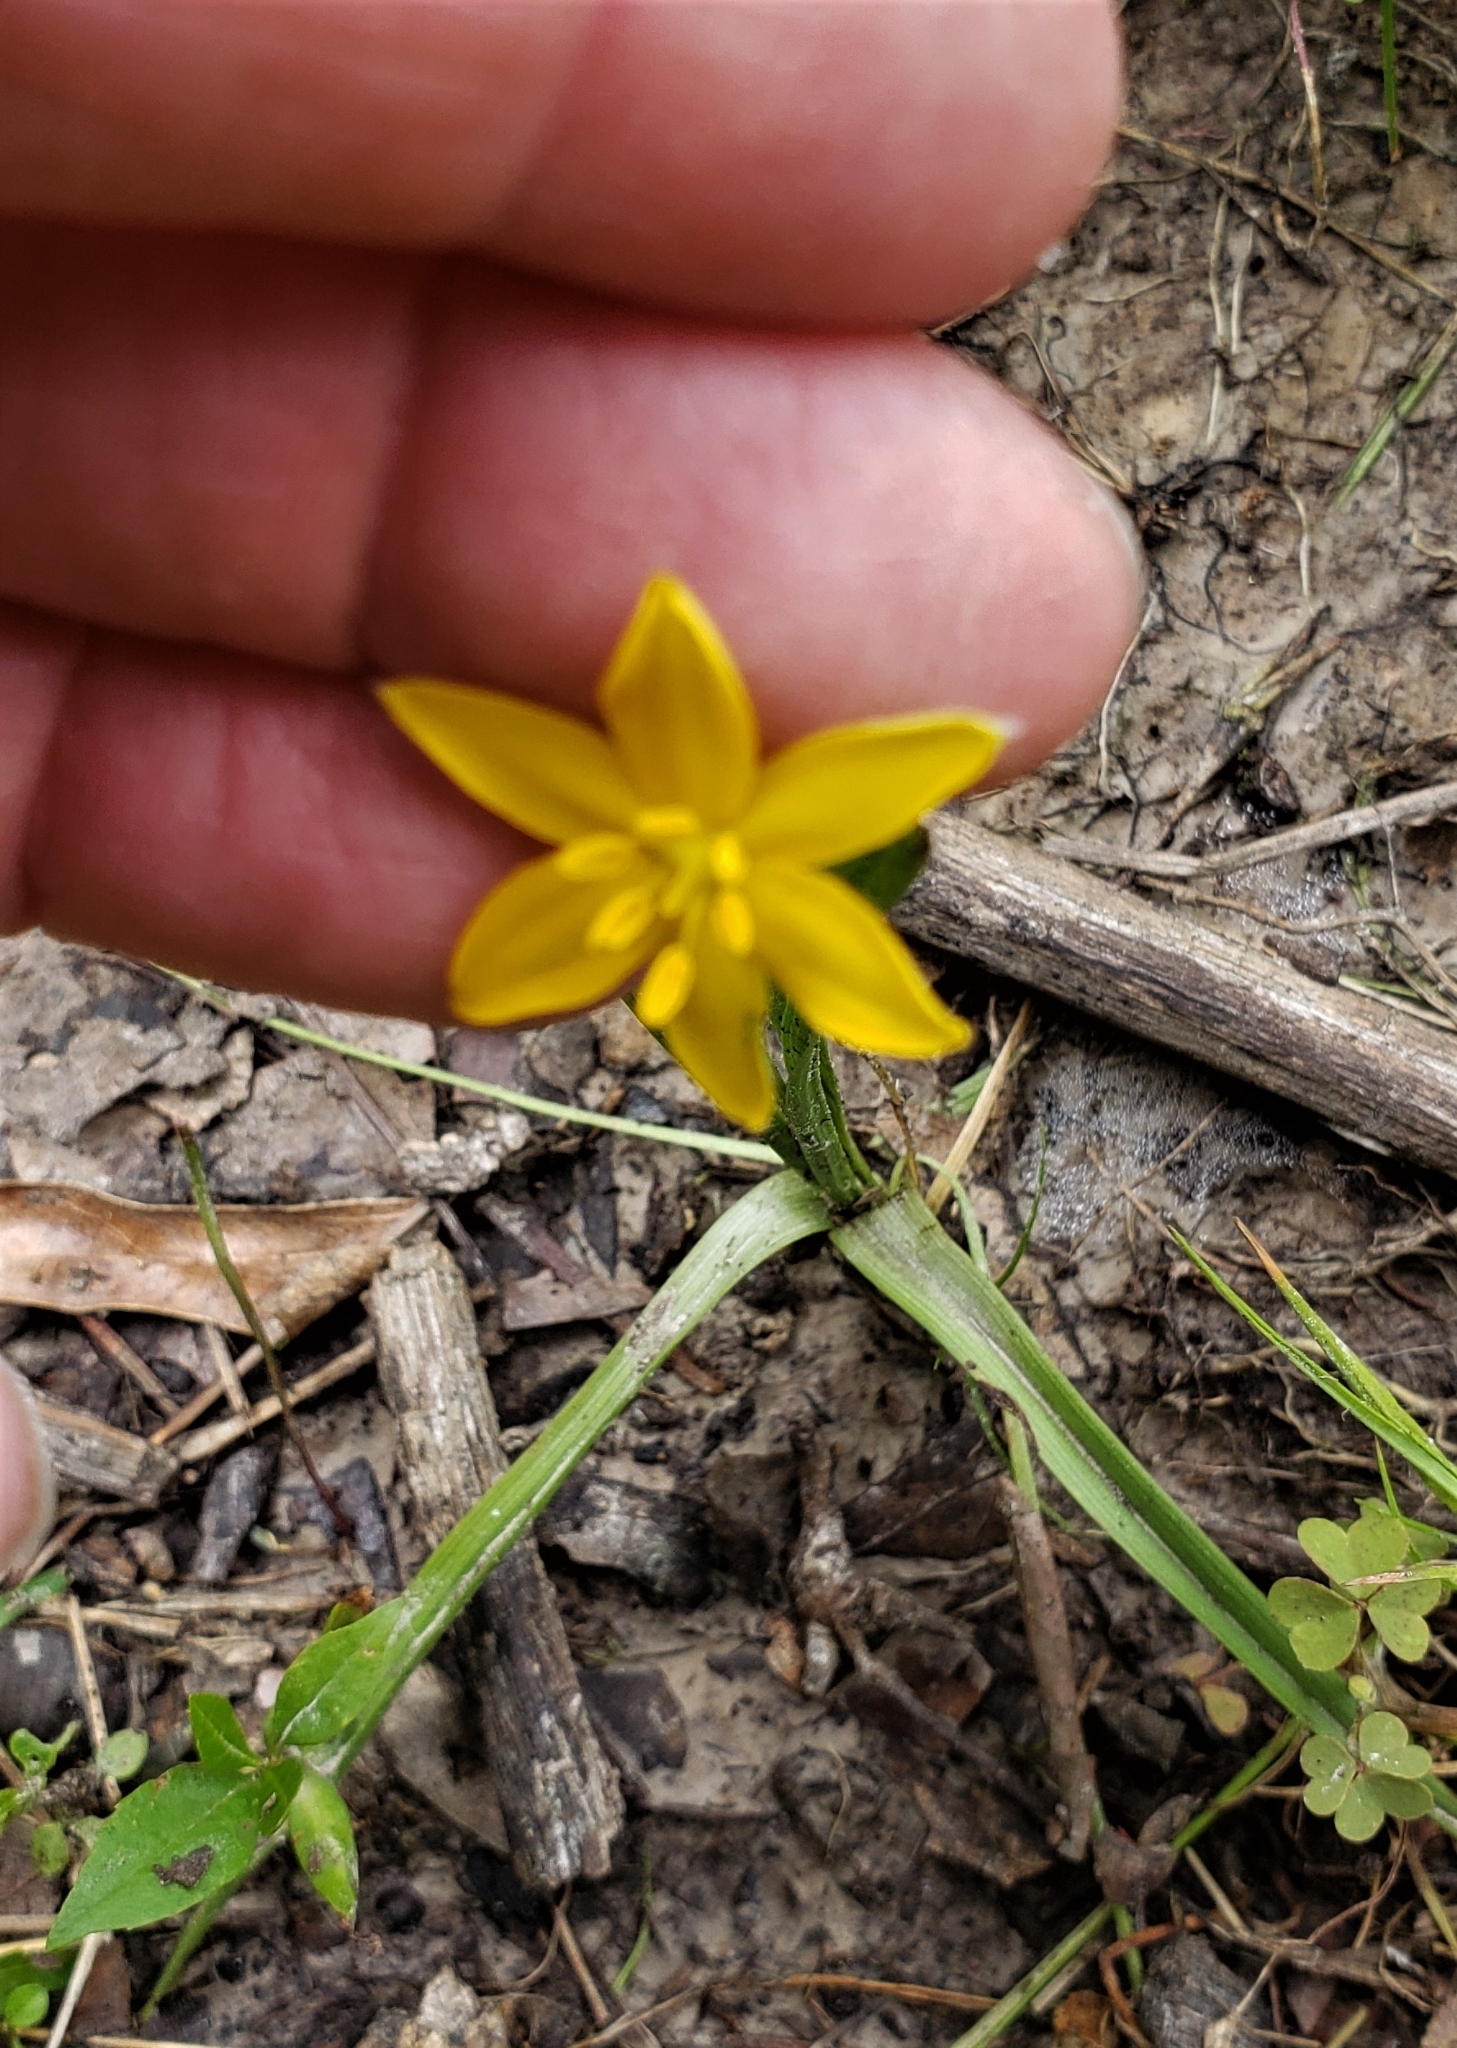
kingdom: Plantae
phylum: Tracheophyta
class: Liliopsida
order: Asparagales
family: Hypoxidaceae
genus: Hypoxis
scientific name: Hypoxis hirsuta
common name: Common goldstar
